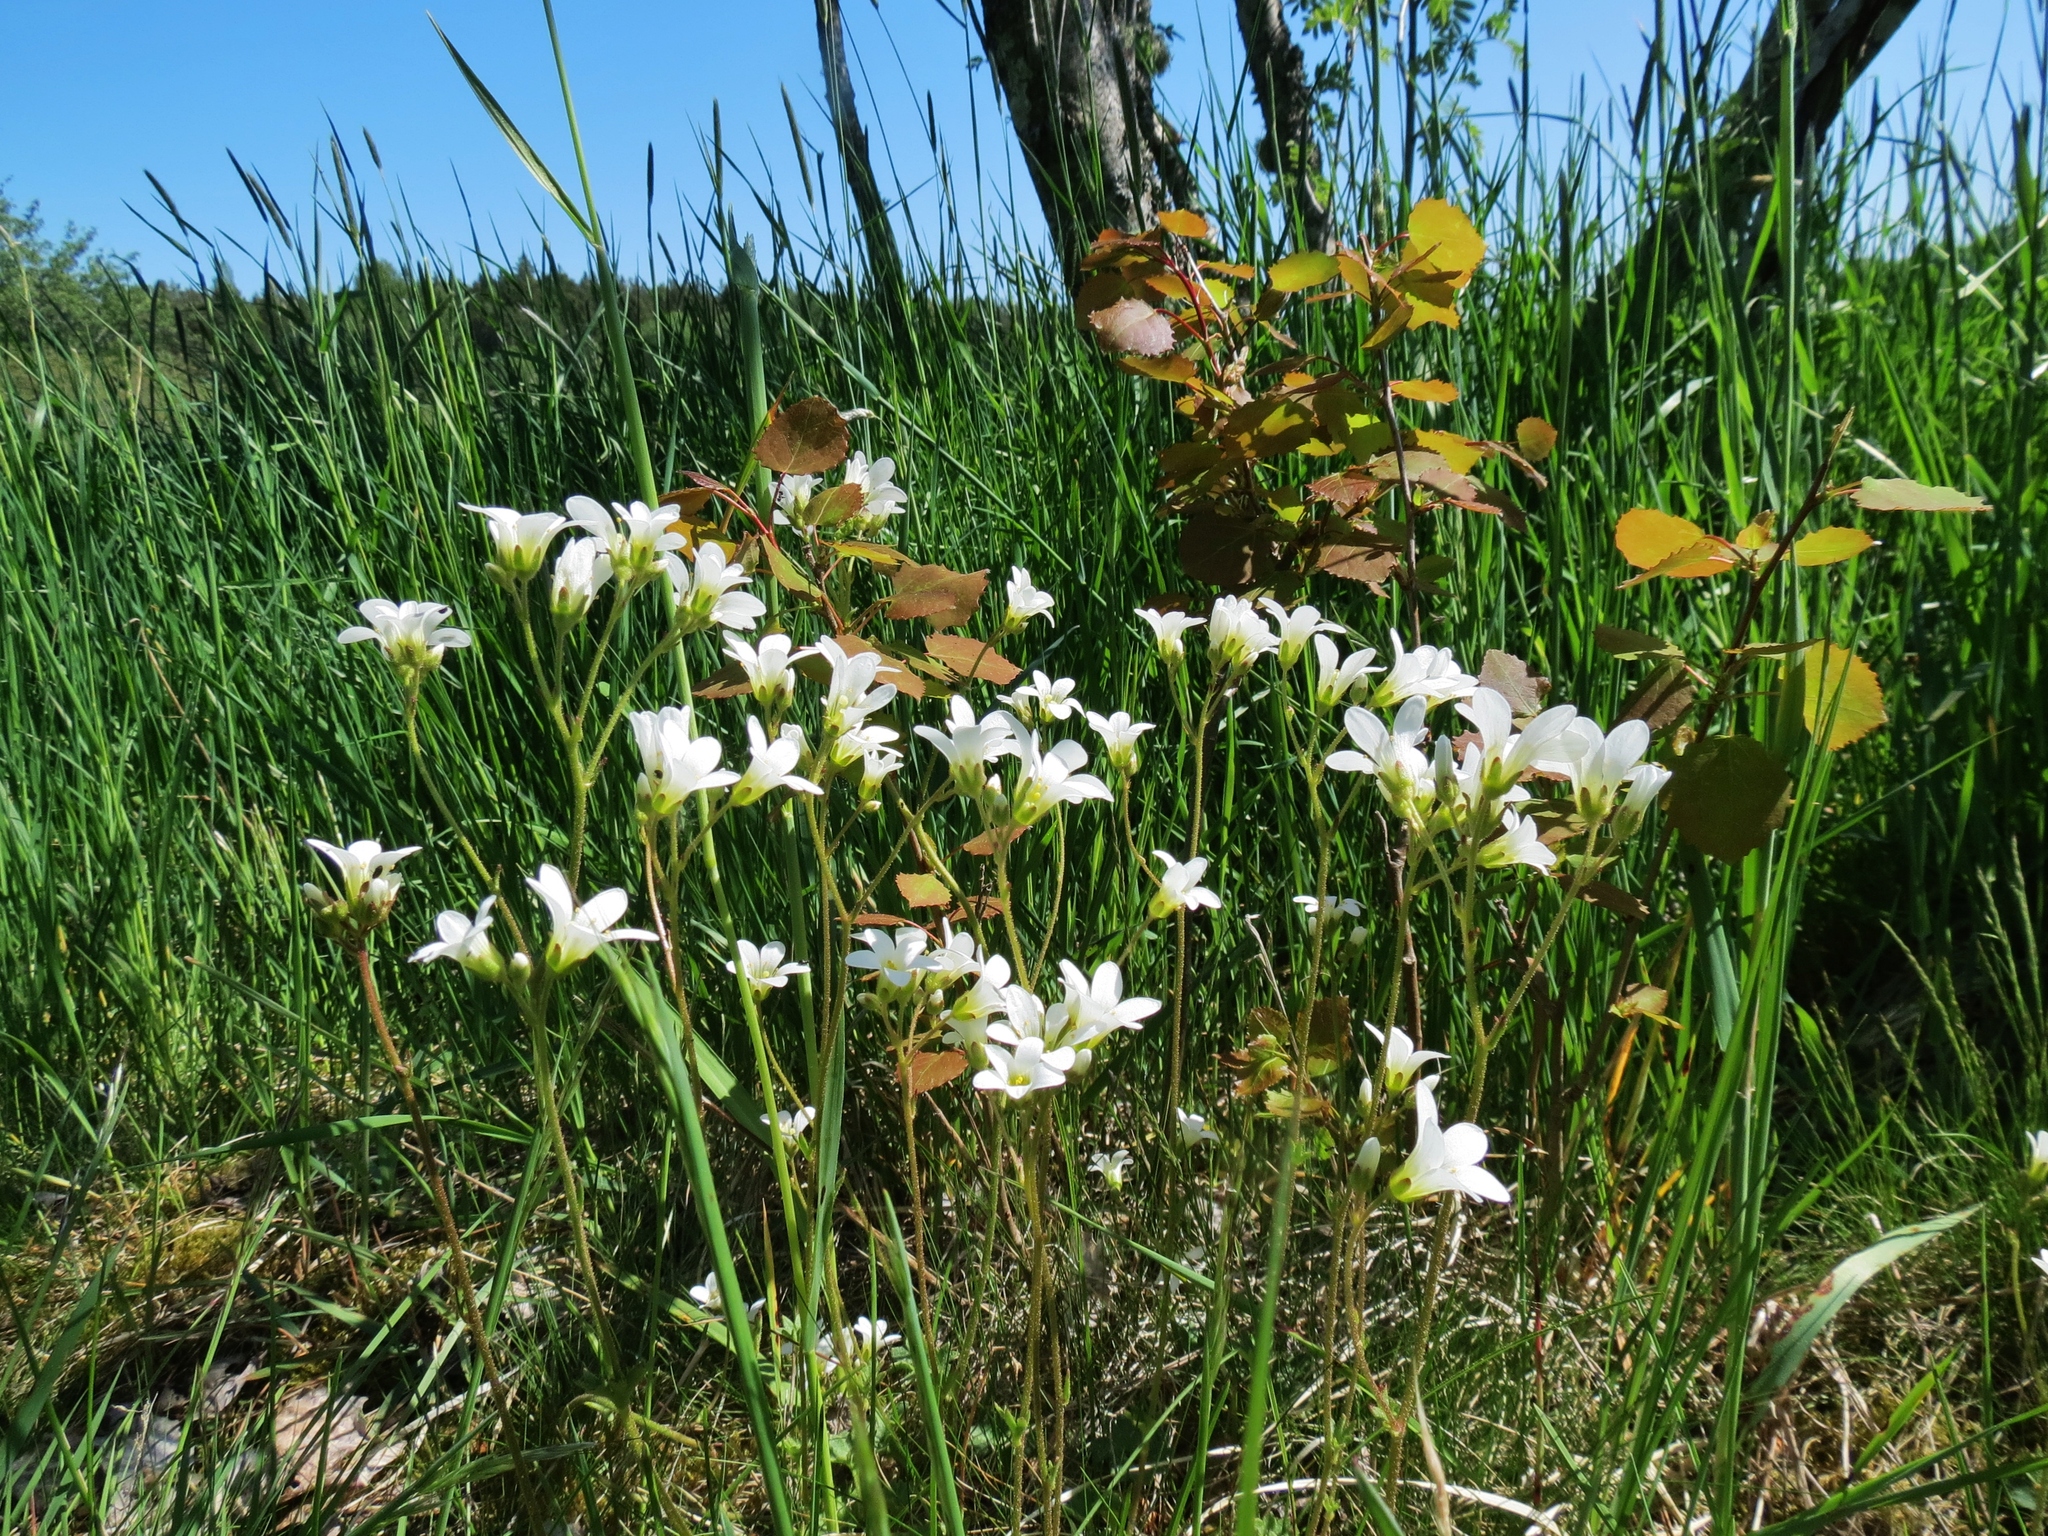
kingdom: Plantae
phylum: Tracheophyta
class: Magnoliopsida
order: Saxifragales
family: Saxifragaceae
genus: Saxifraga
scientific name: Saxifraga granulata
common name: Meadow saxifrage
